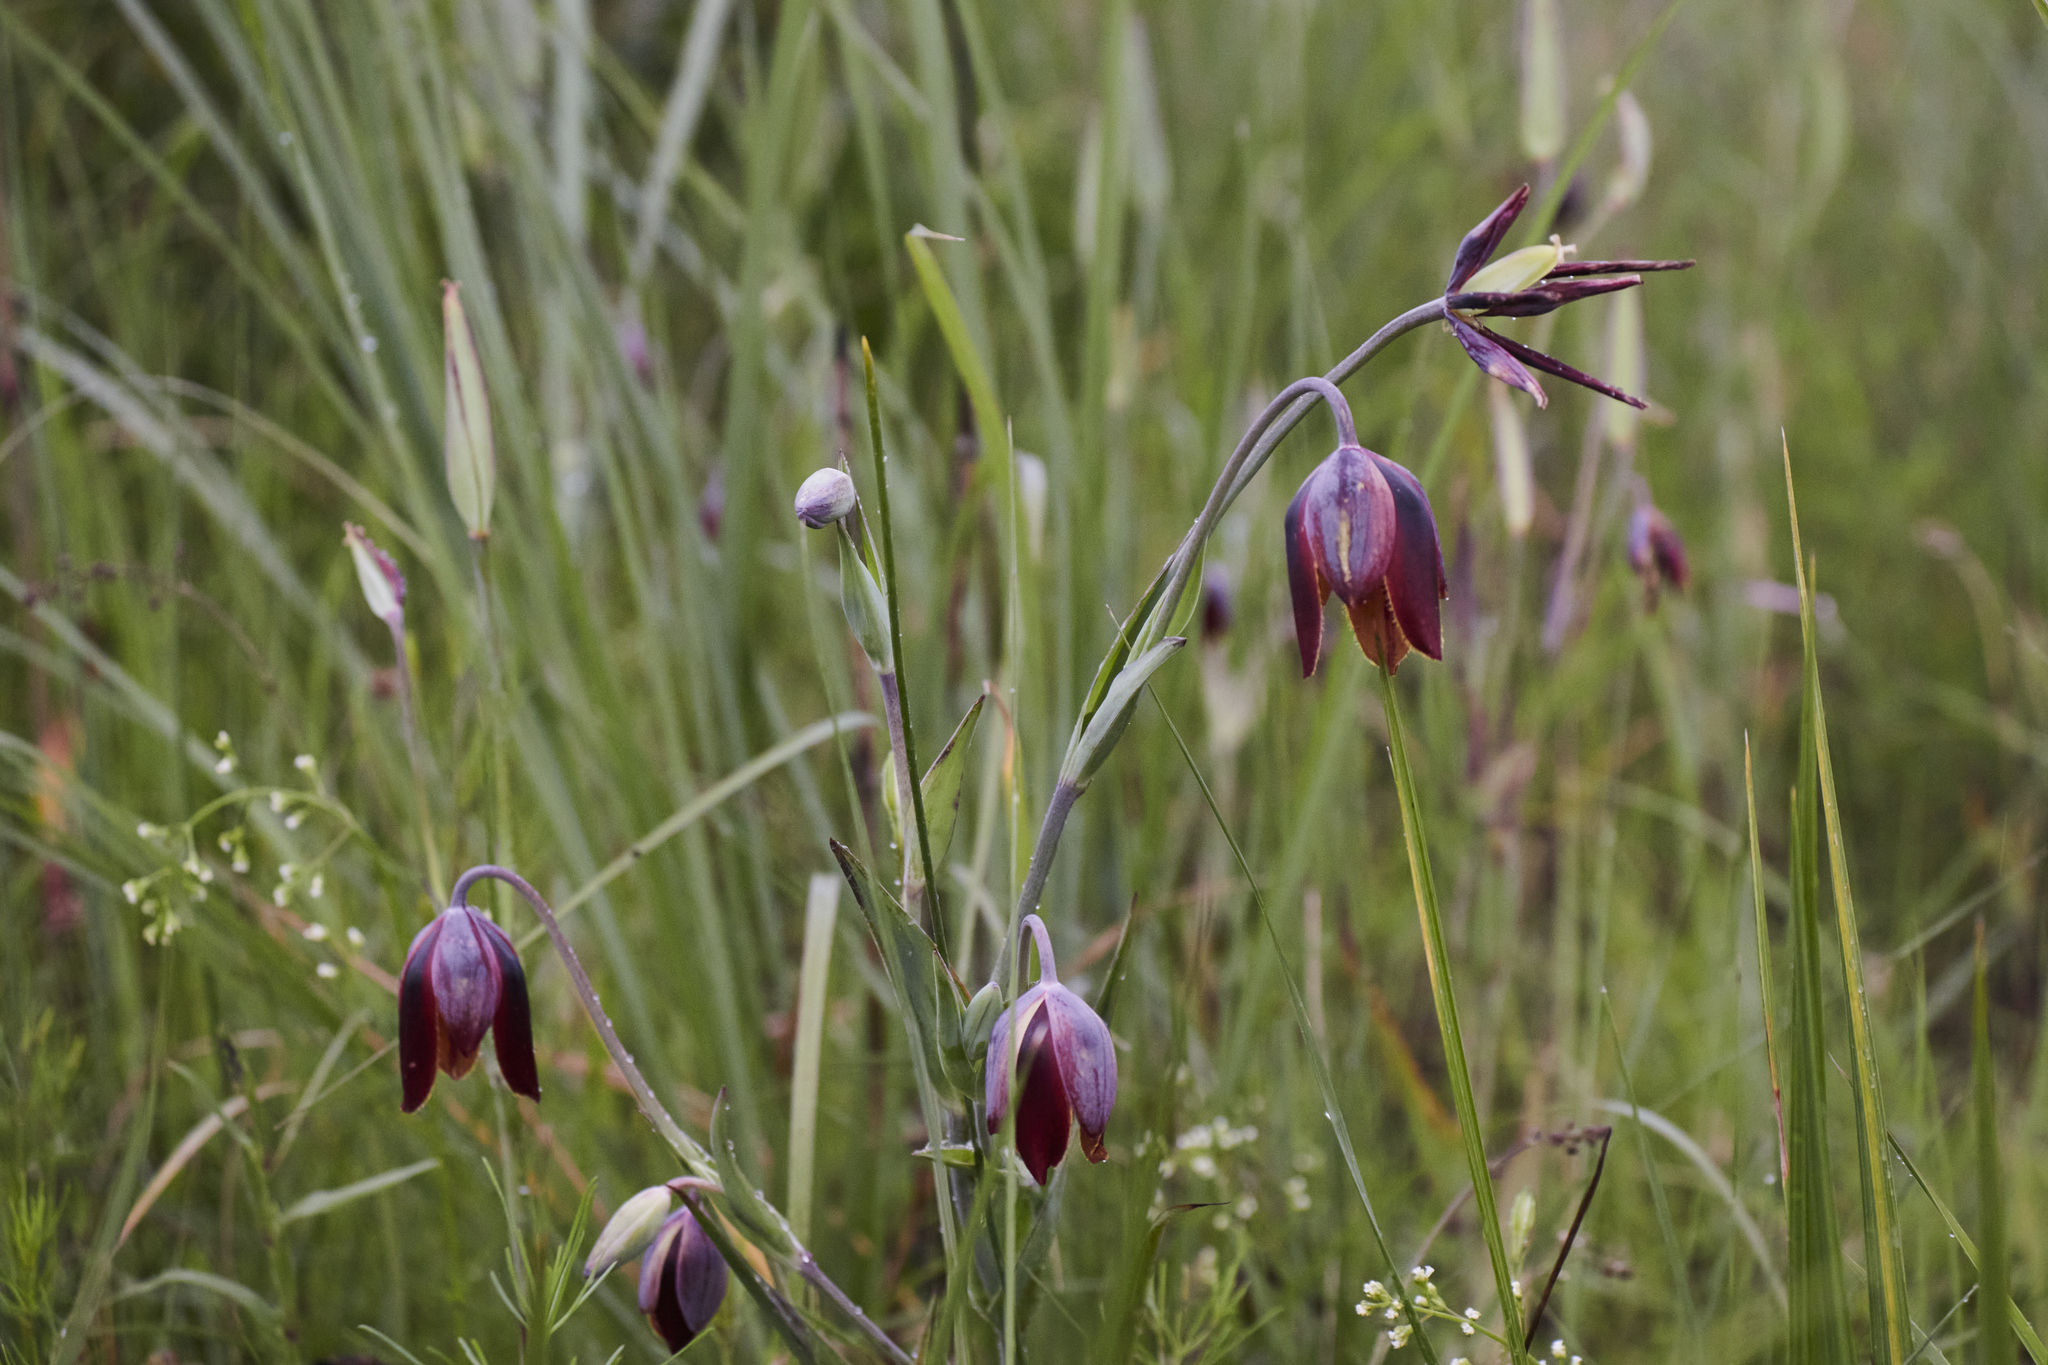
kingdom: Plantae
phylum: Tracheophyta
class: Liliopsida
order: Liliales
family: Liliaceae
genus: Calochortus
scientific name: Calochortus purpureus
